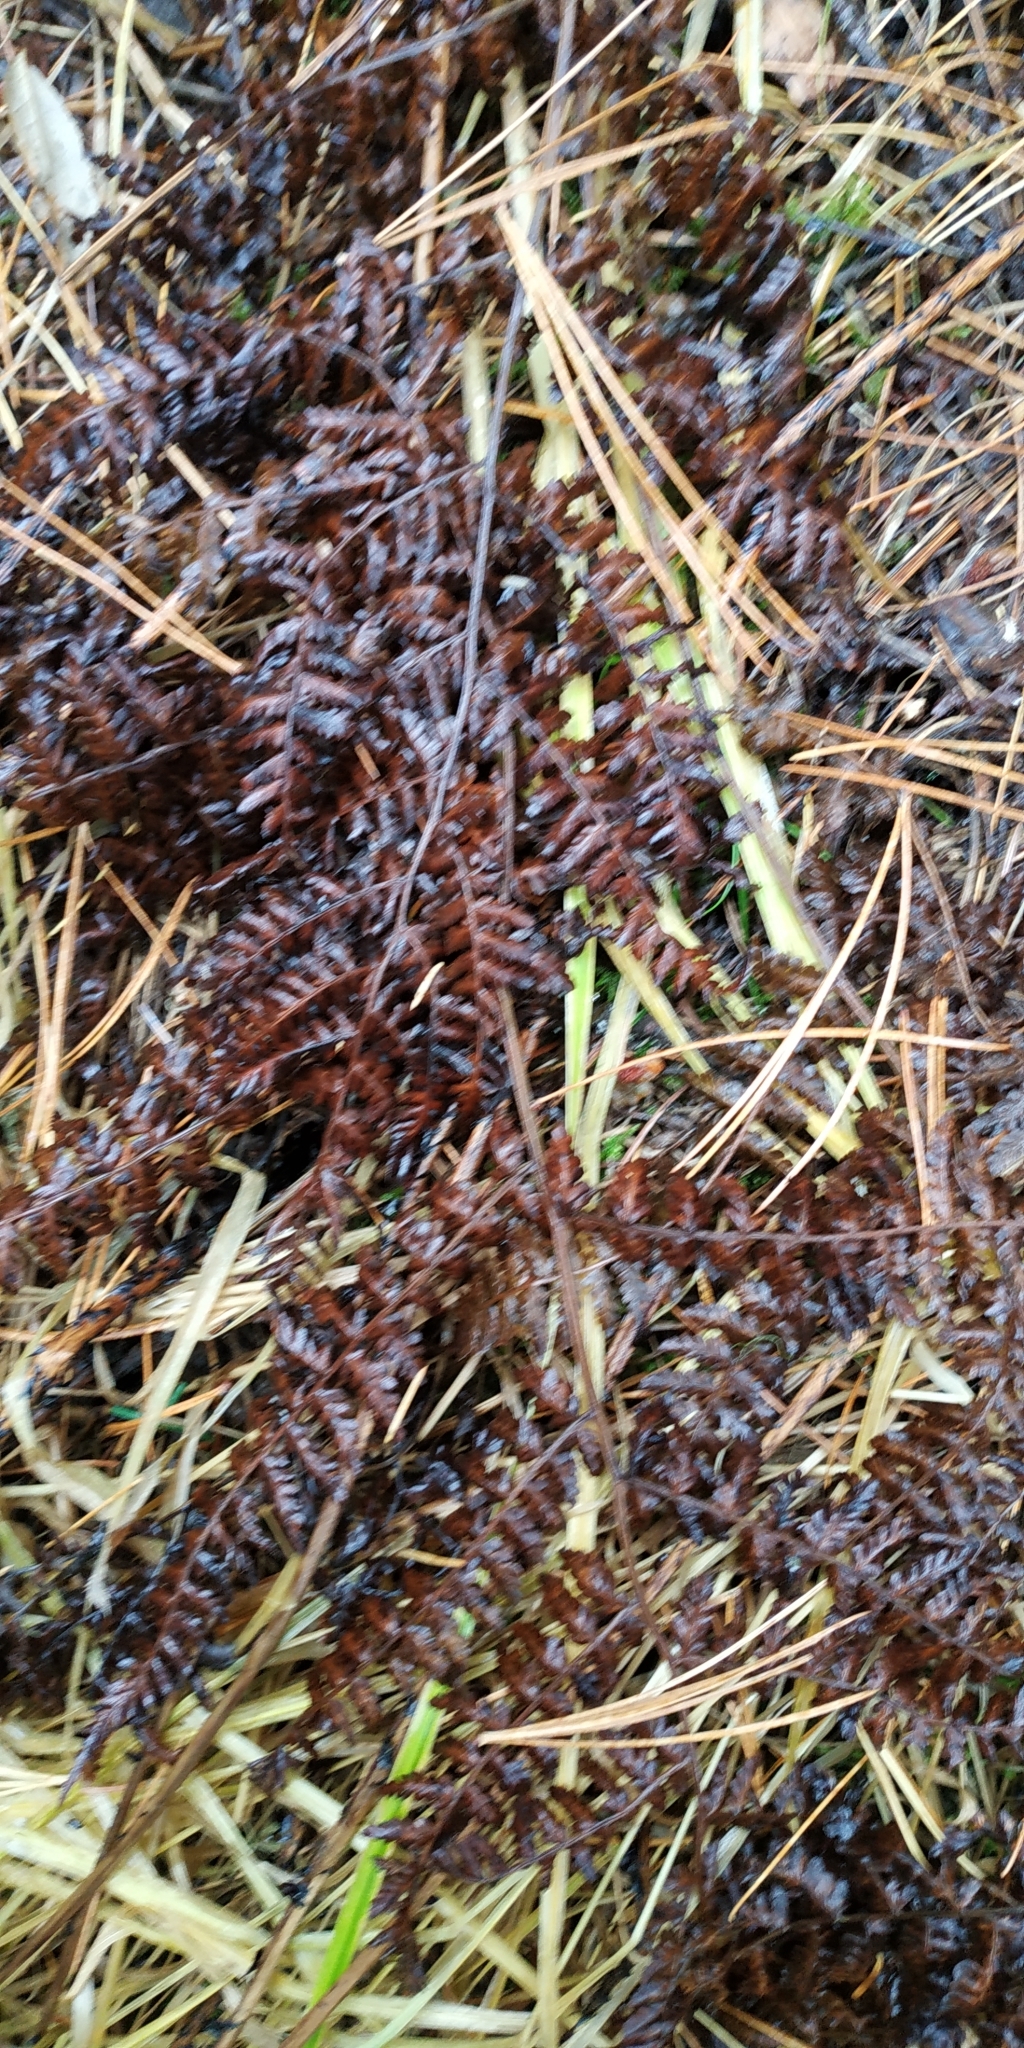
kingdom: Plantae
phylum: Tracheophyta
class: Polypodiopsida
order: Polypodiales
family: Athyriaceae
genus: Athyrium
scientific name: Athyrium filix-femina
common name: Lady fern
